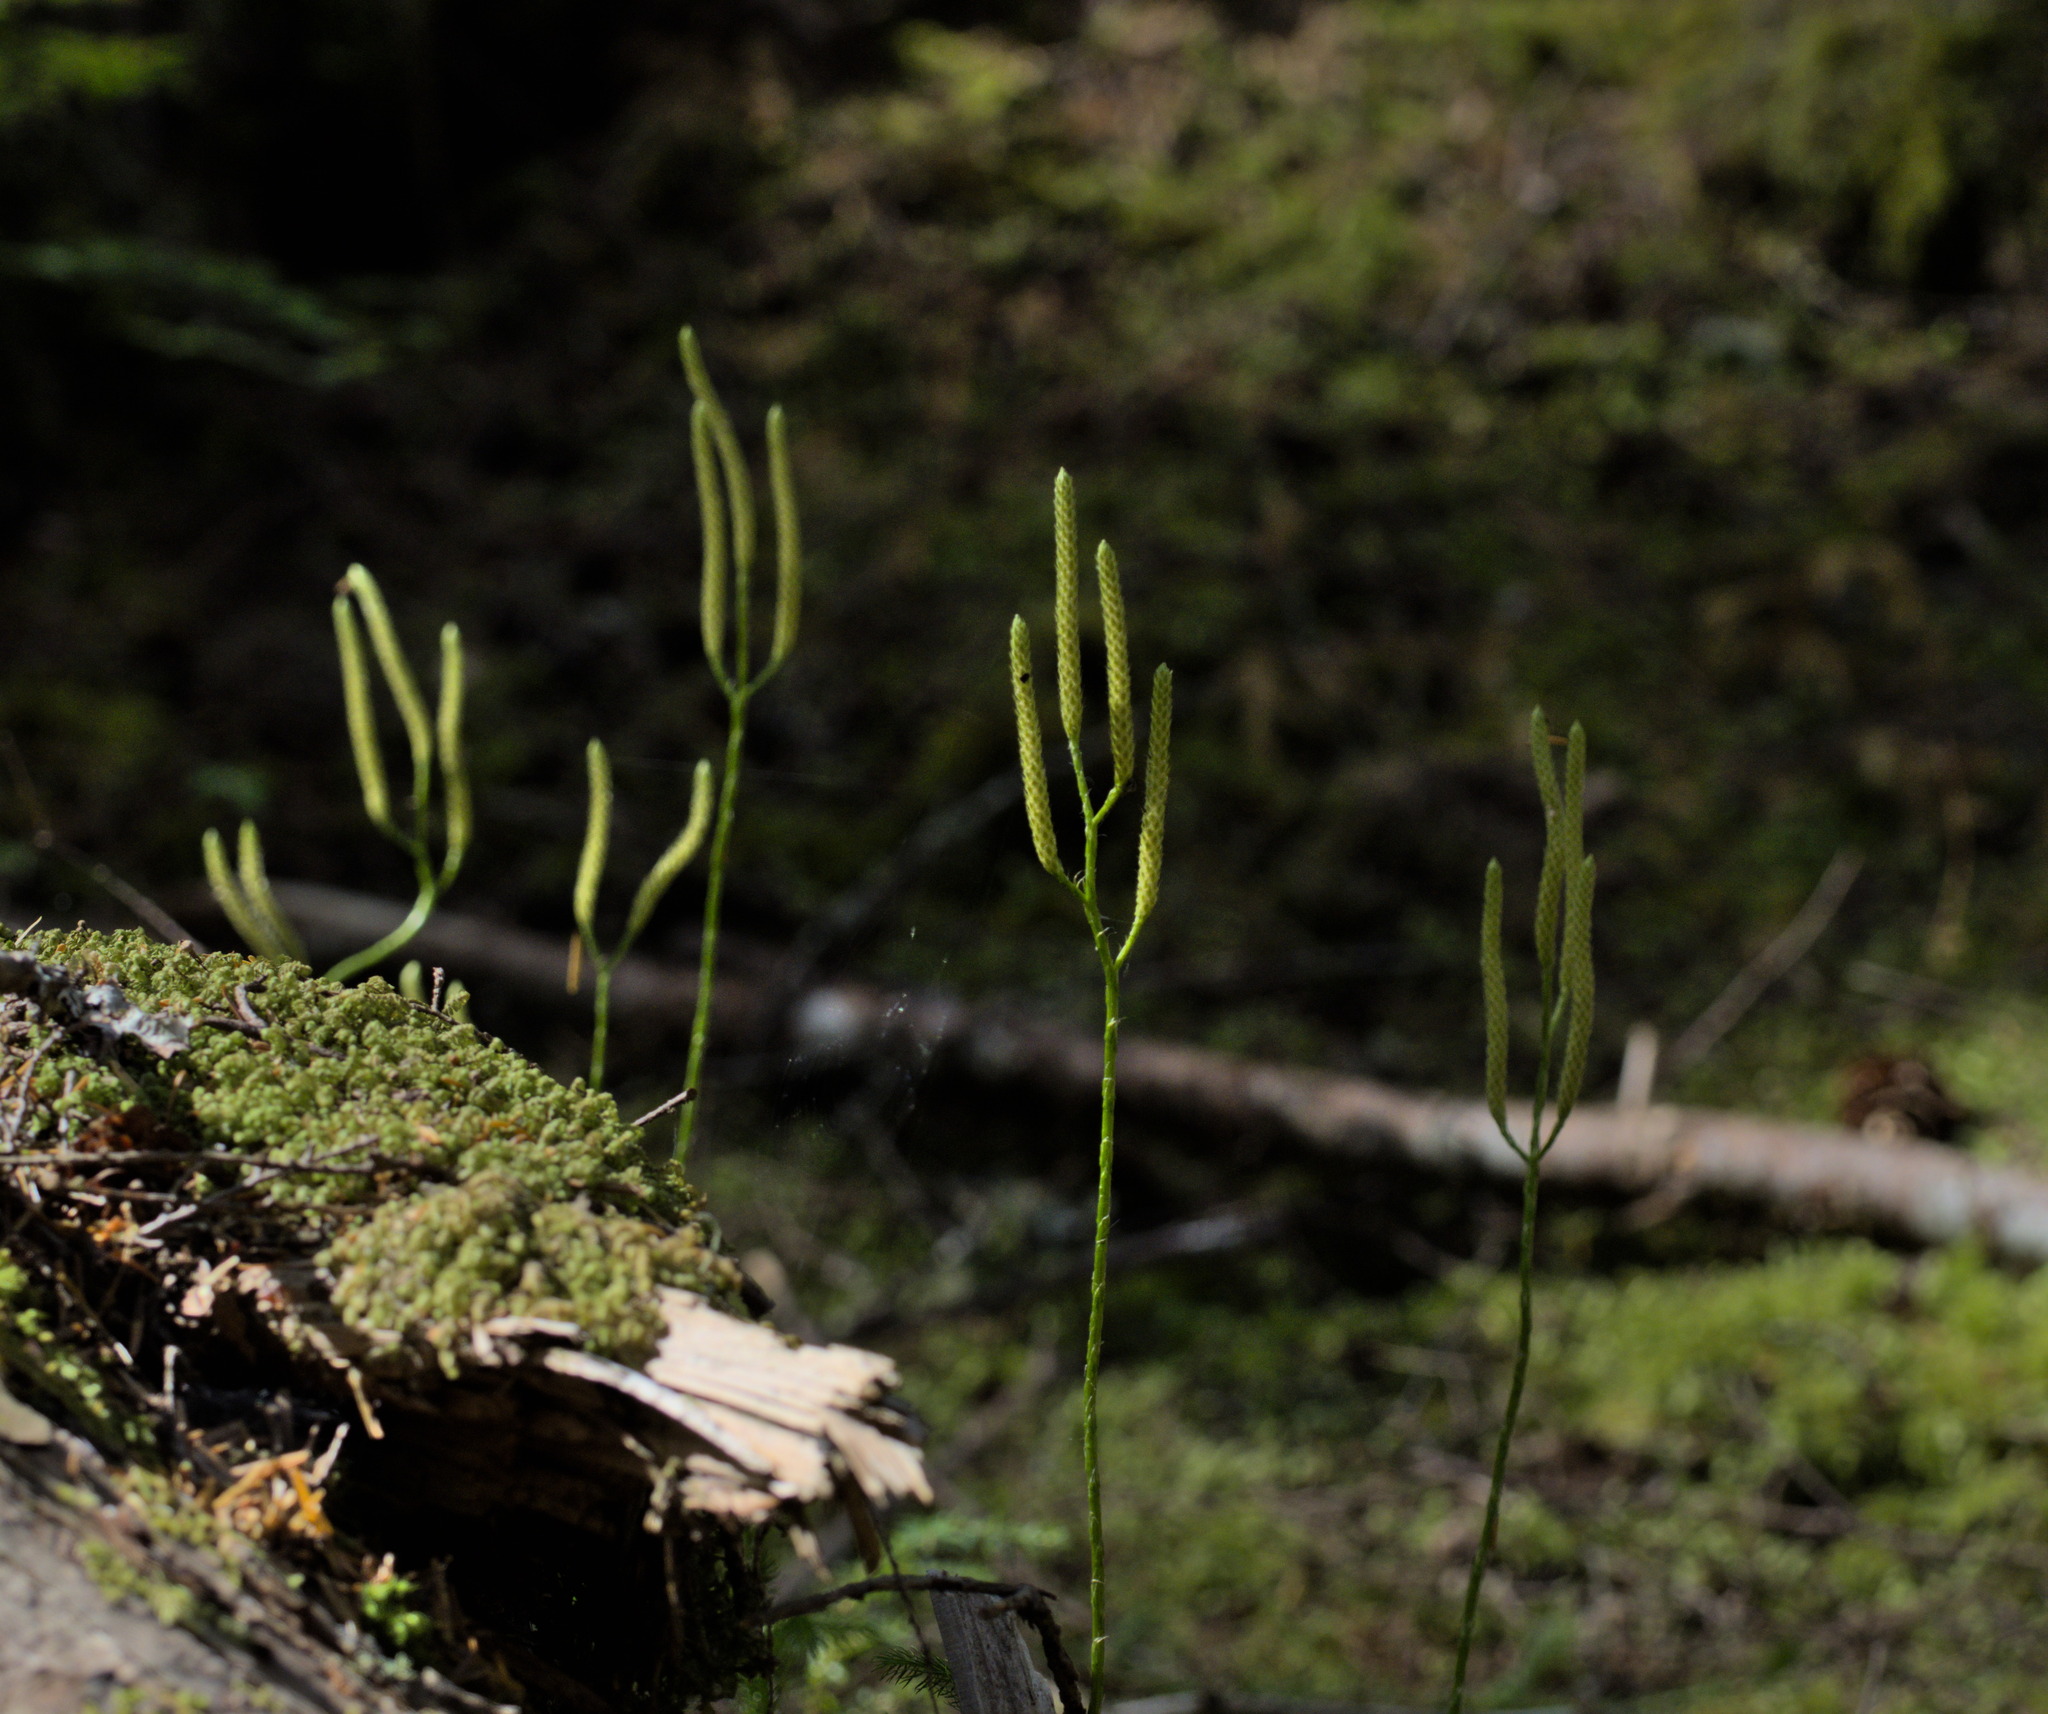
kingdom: Plantae
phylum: Tracheophyta
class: Lycopodiopsida
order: Lycopodiales
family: Lycopodiaceae
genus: Lycopodium
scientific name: Lycopodium clavatum
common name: Stag's-horn clubmoss
